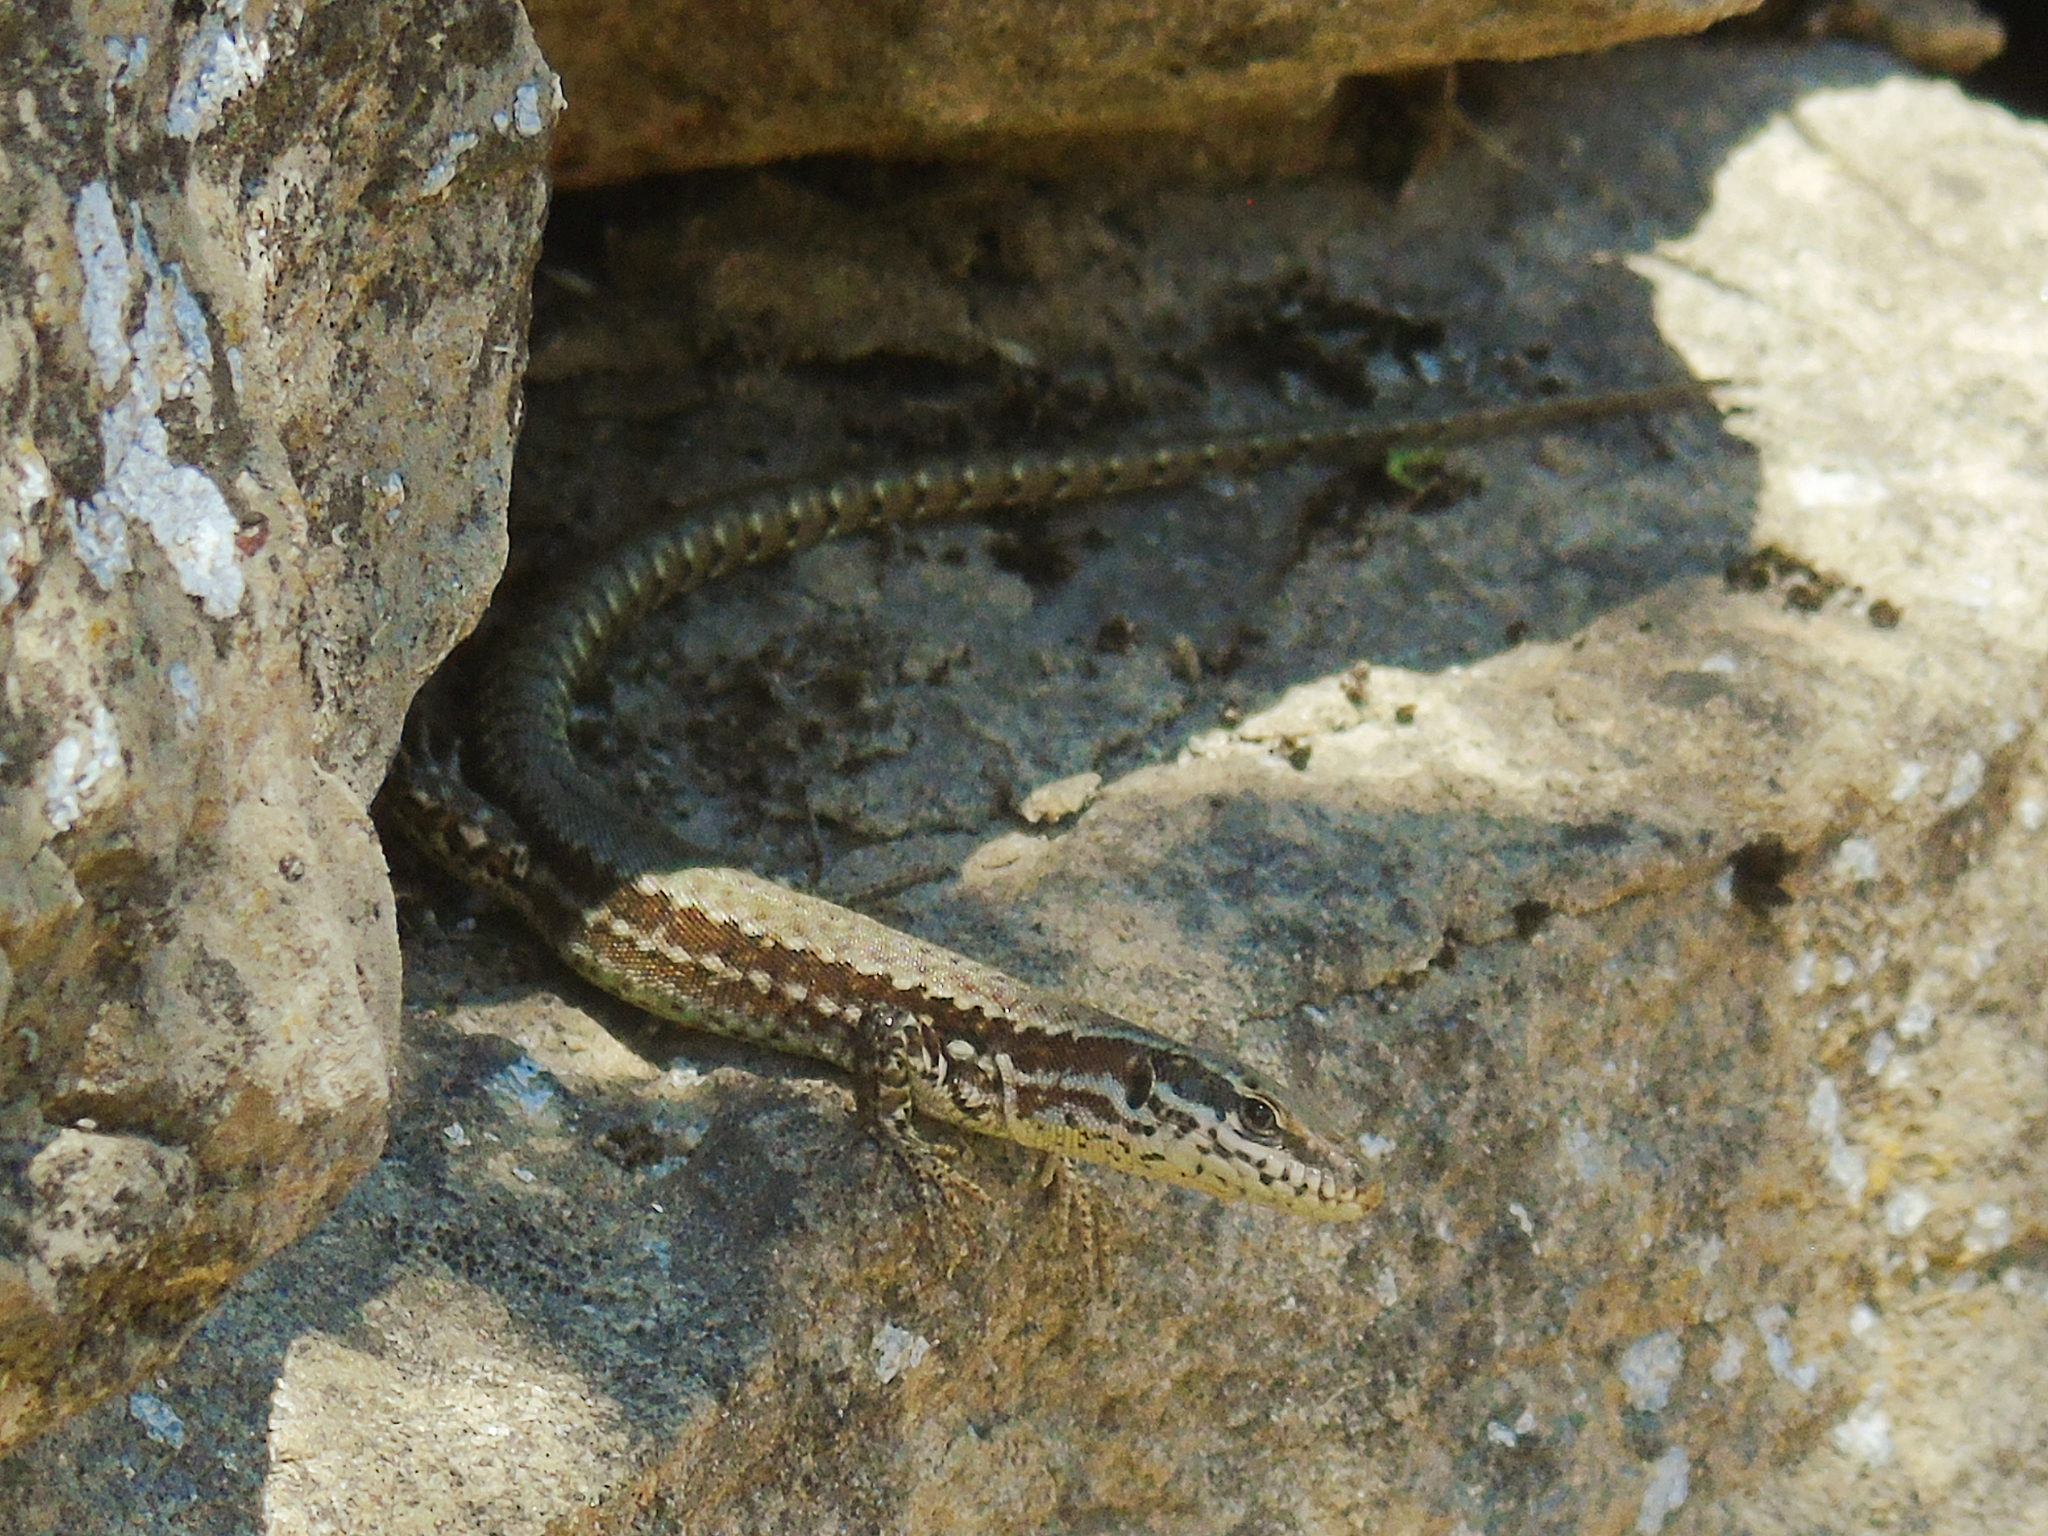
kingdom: Animalia
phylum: Chordata
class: Squamata
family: Lacertidae
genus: Podarcis
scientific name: Podarcis muralis
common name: Common wall lizard
